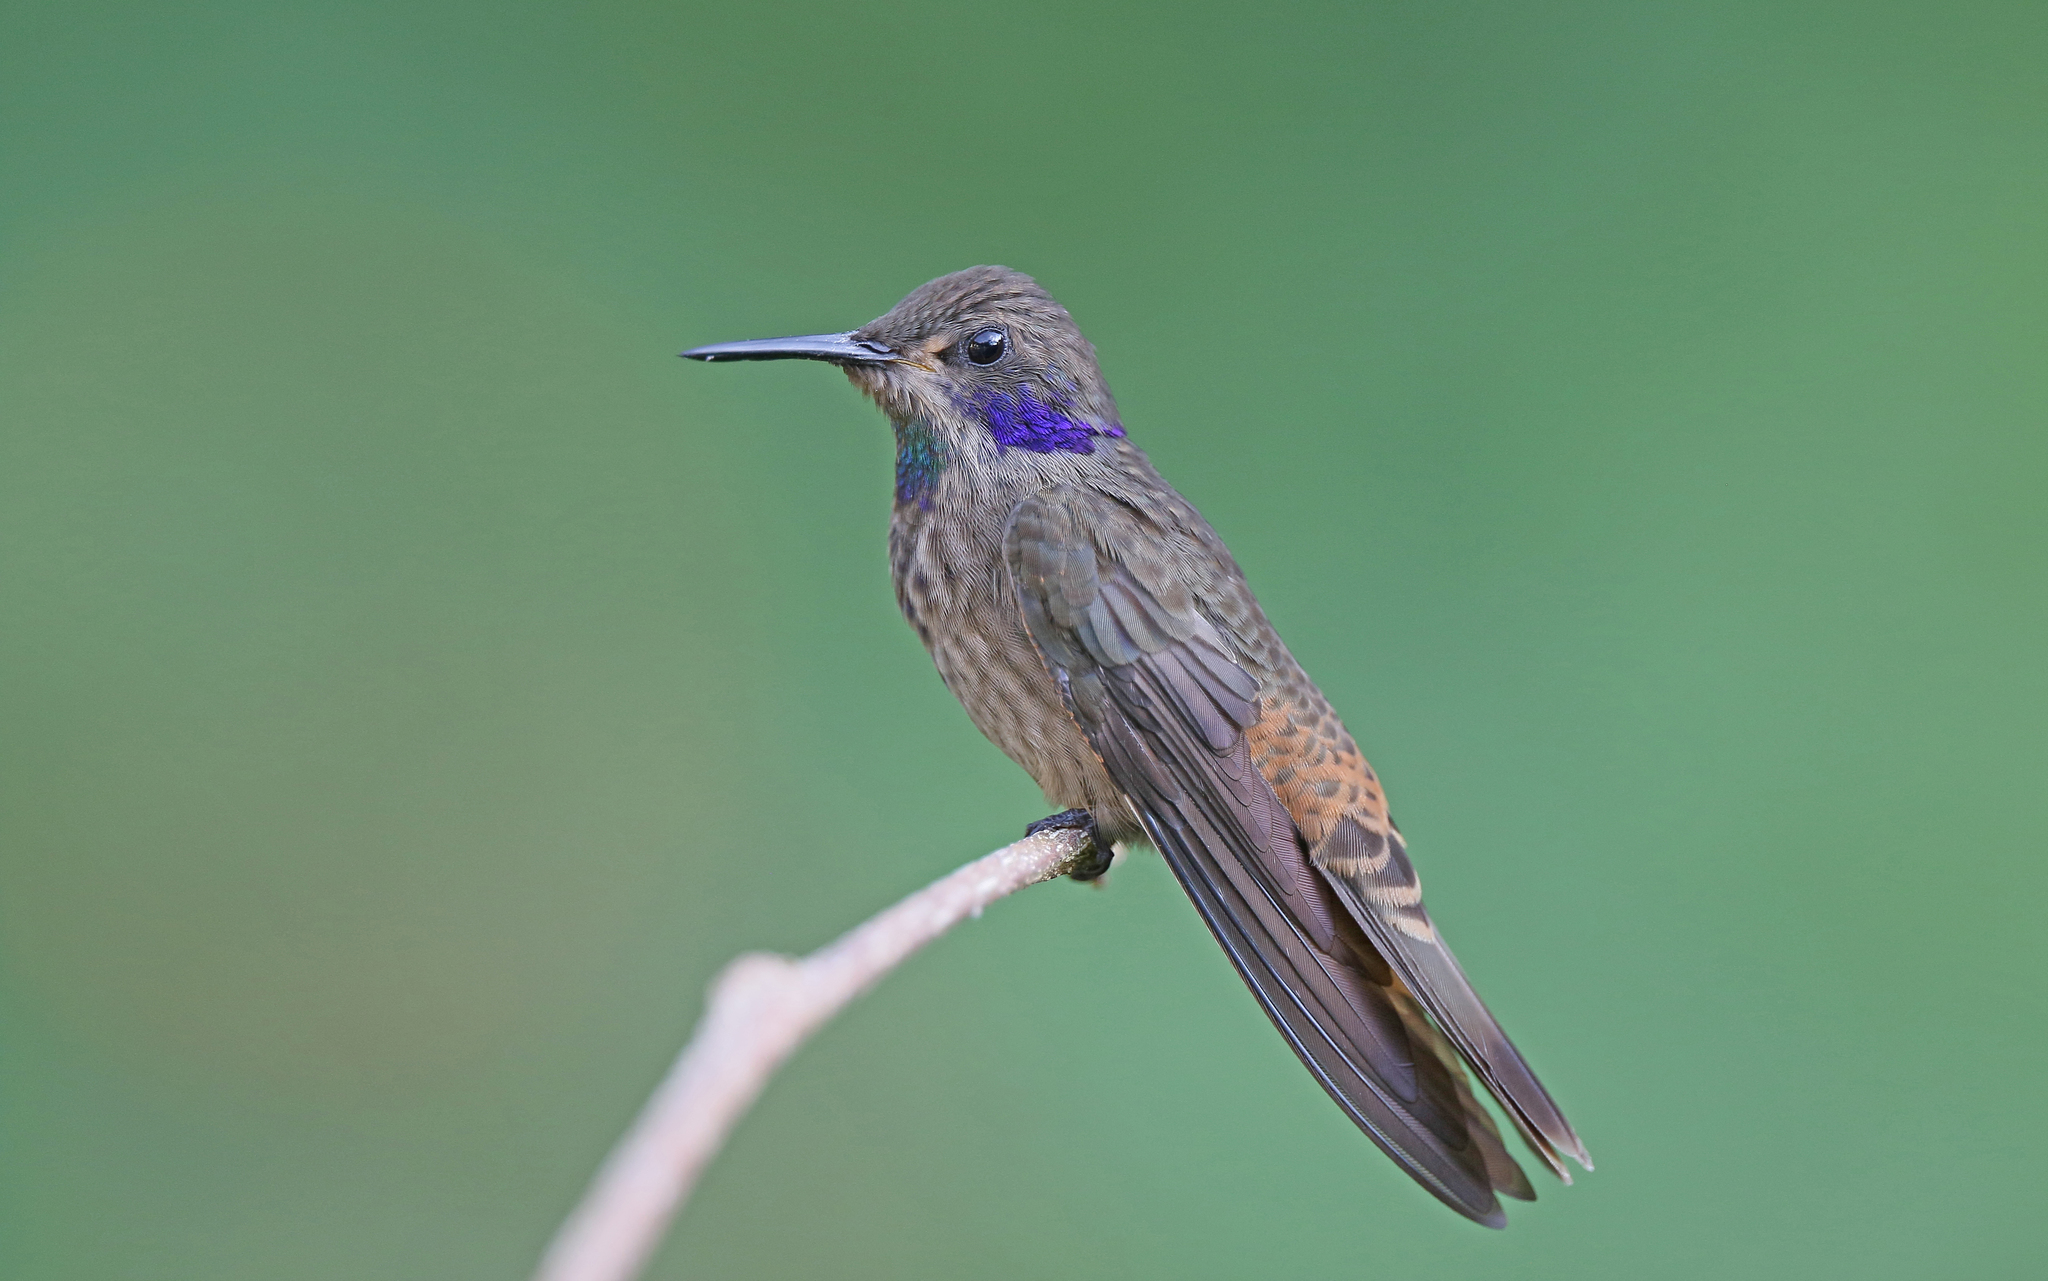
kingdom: Animalia
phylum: Chordata
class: Aves
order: Apodiformes
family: Trochilidae
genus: Colibri
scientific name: Colibri delphinae
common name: Brown violetear
